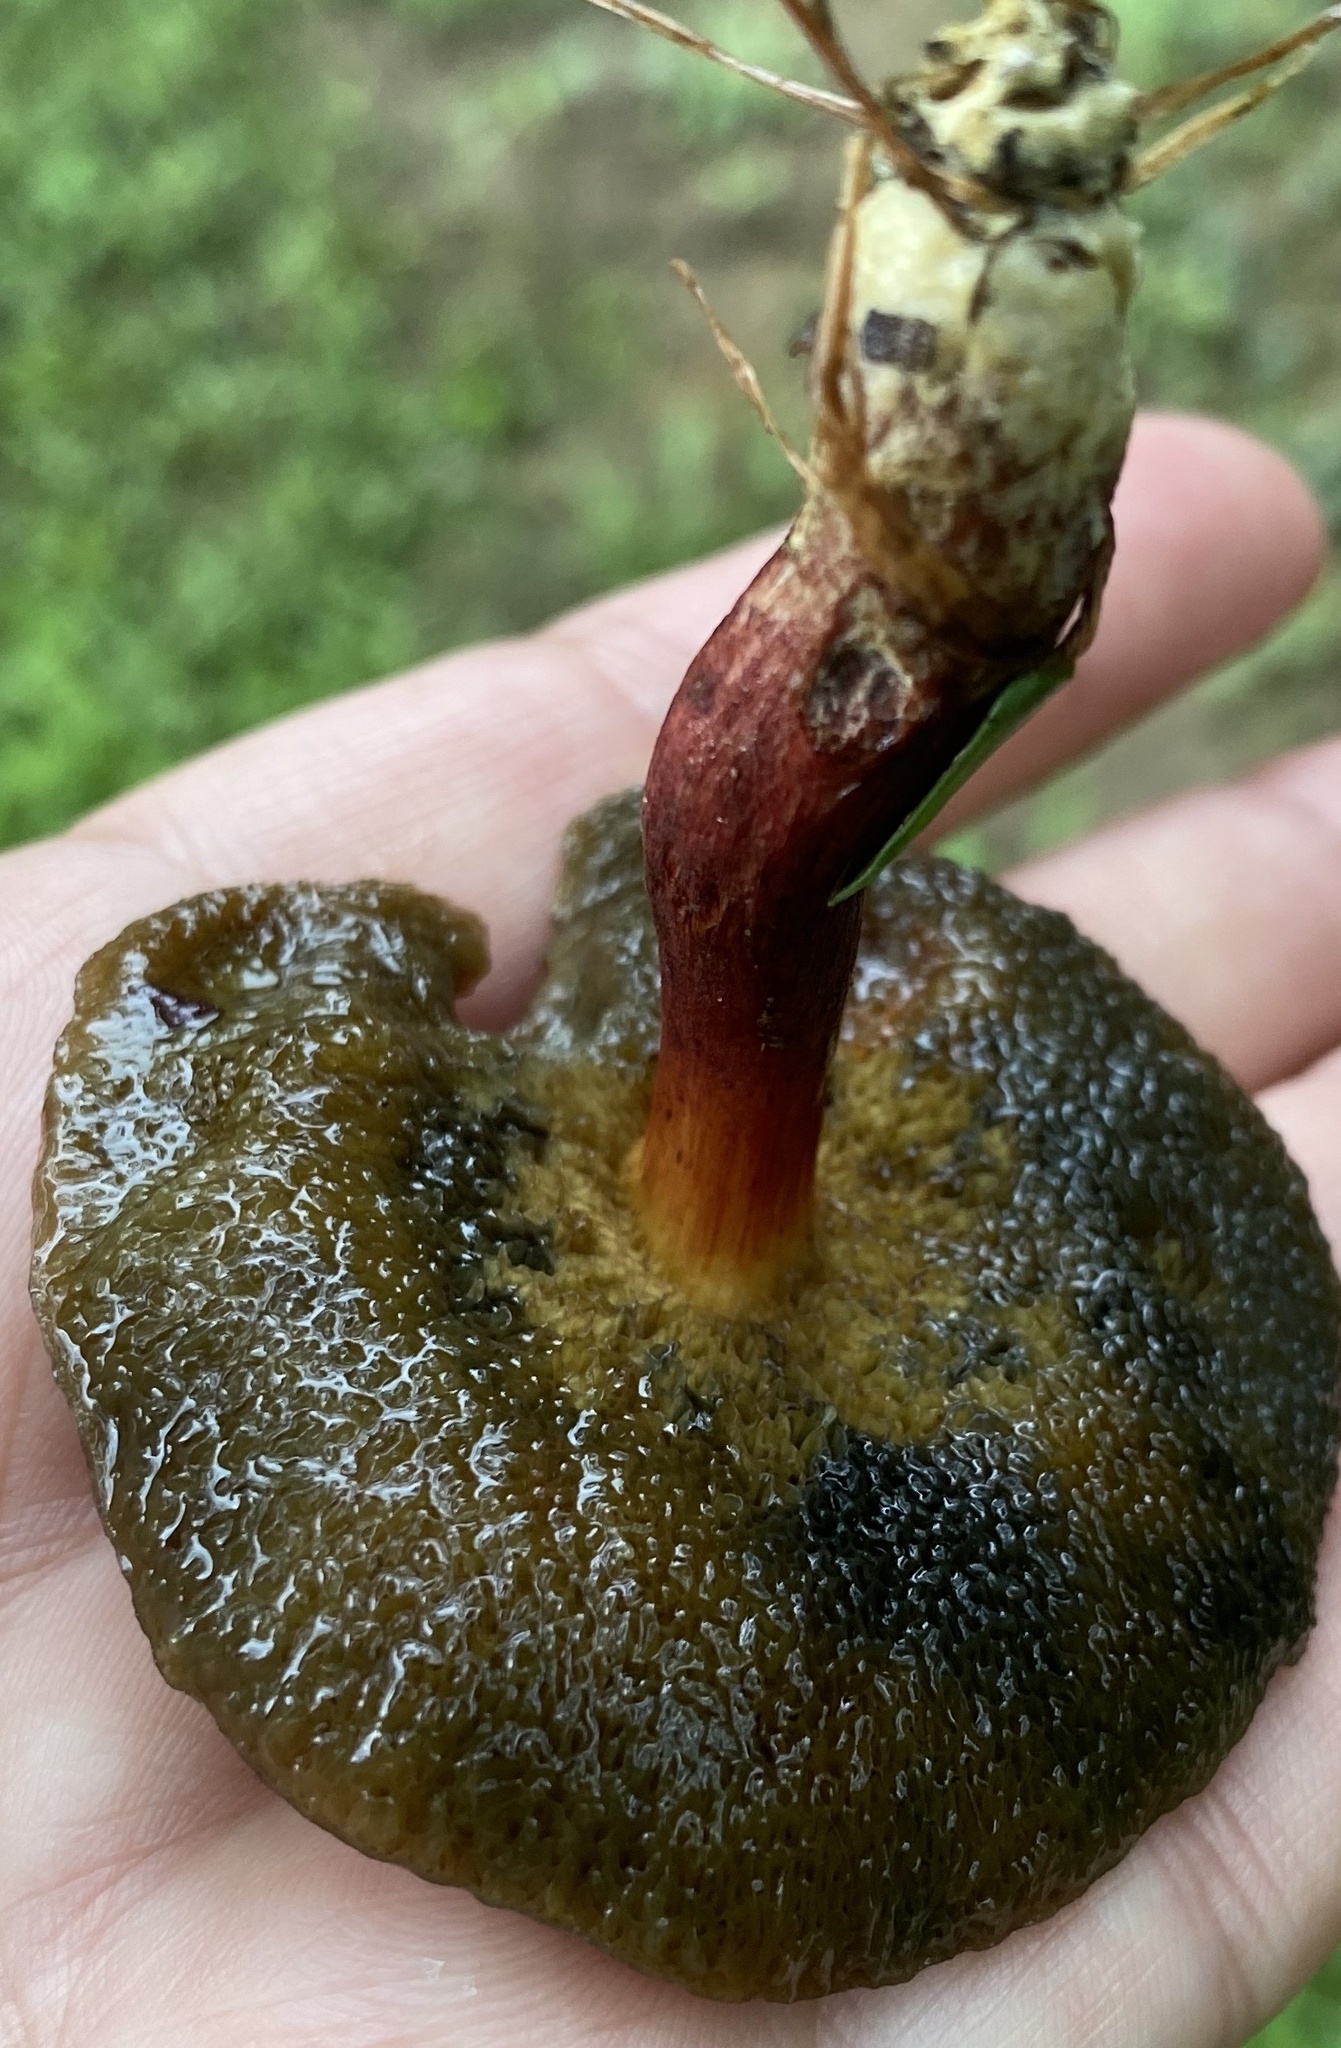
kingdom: Fungi
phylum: Basidiomycota
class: Agaricomycetes
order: Boletales
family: Boletaceae
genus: Xerocomellus
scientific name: Xerocomellus chrysenteron
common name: Red-cracking bolete
